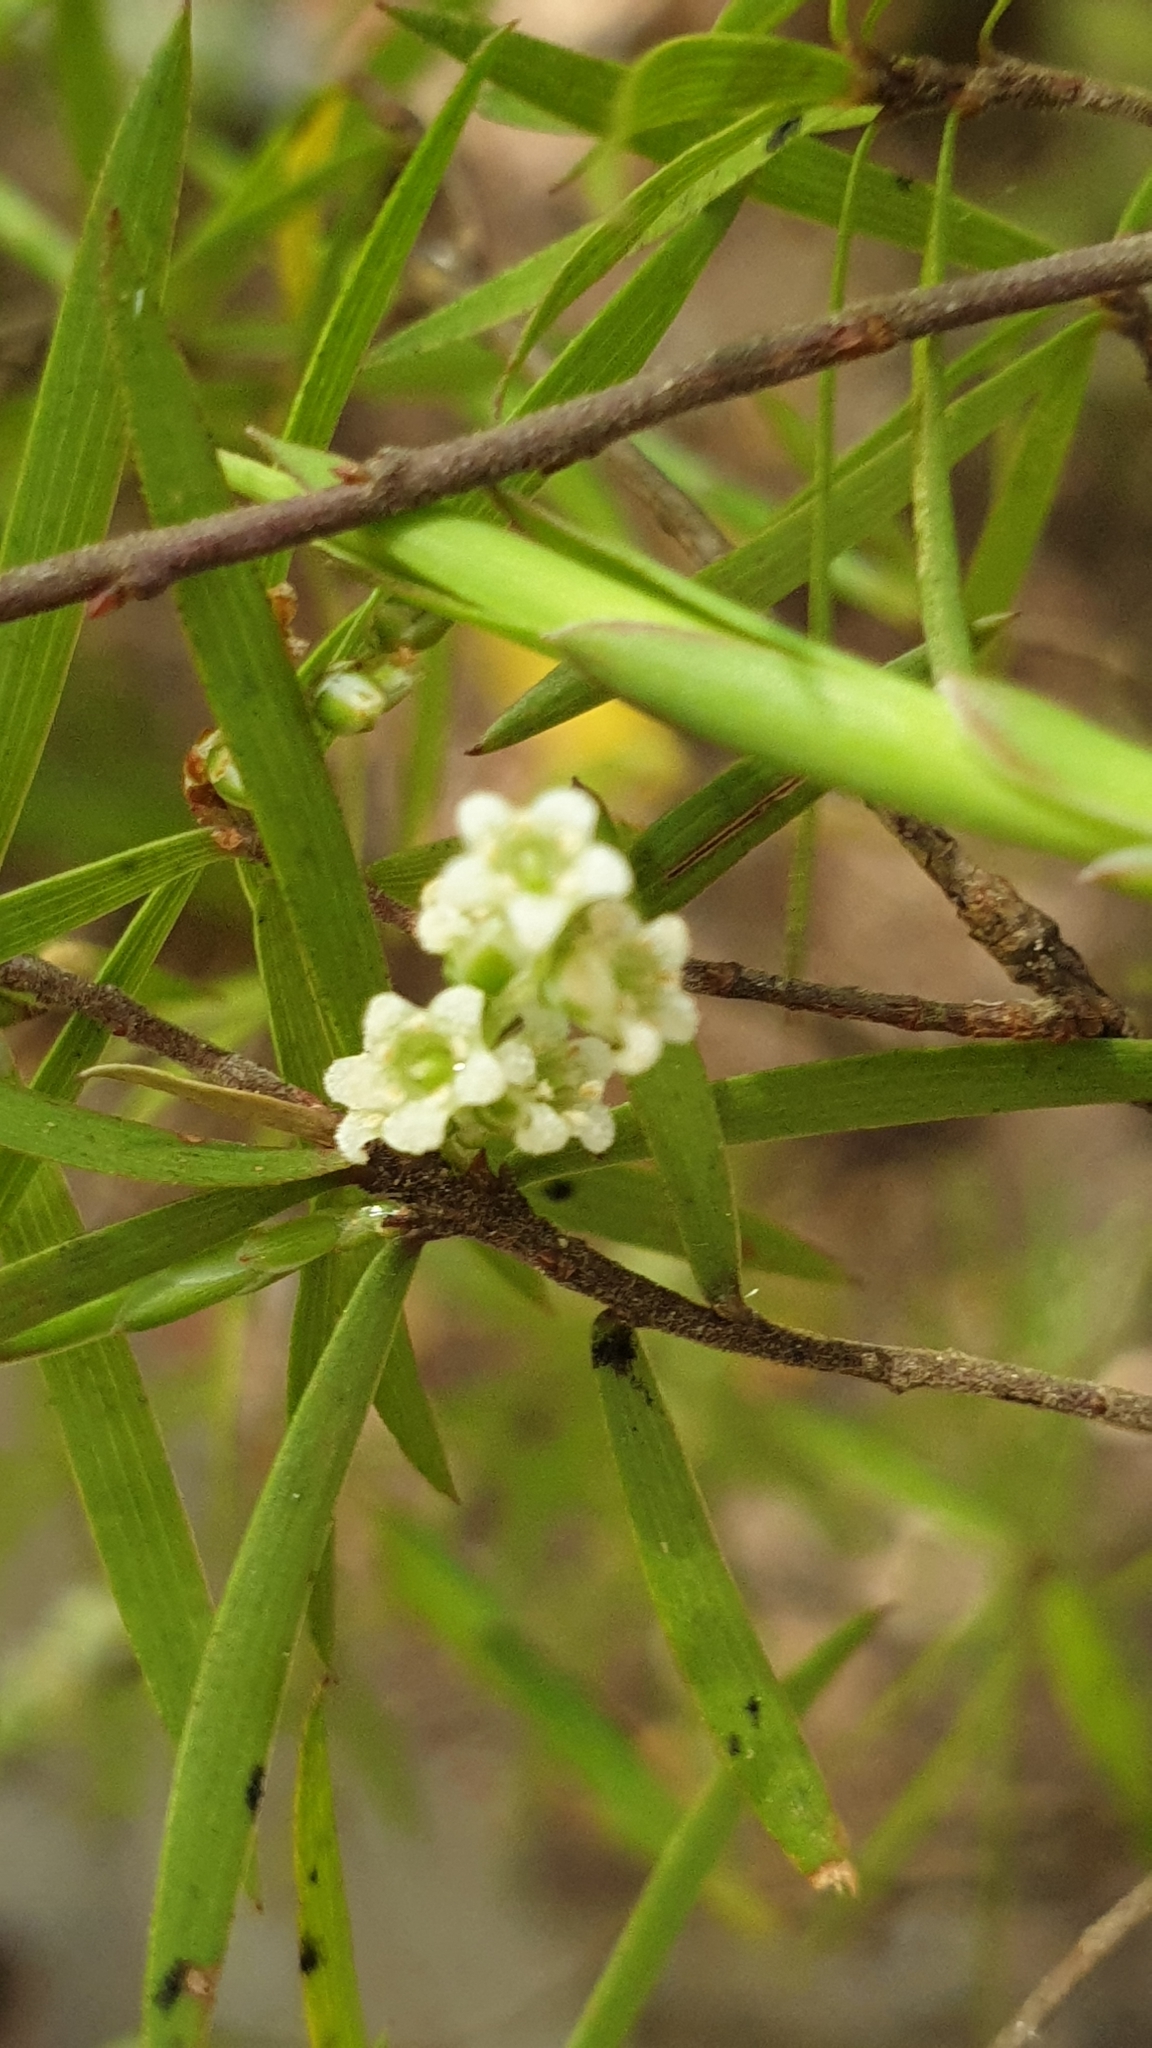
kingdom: Plantae
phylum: Tracheophyta
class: Magnoliopsida
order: Ericales
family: Ericaceae
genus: Leucopogon
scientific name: Leucopogon fasciculatus
